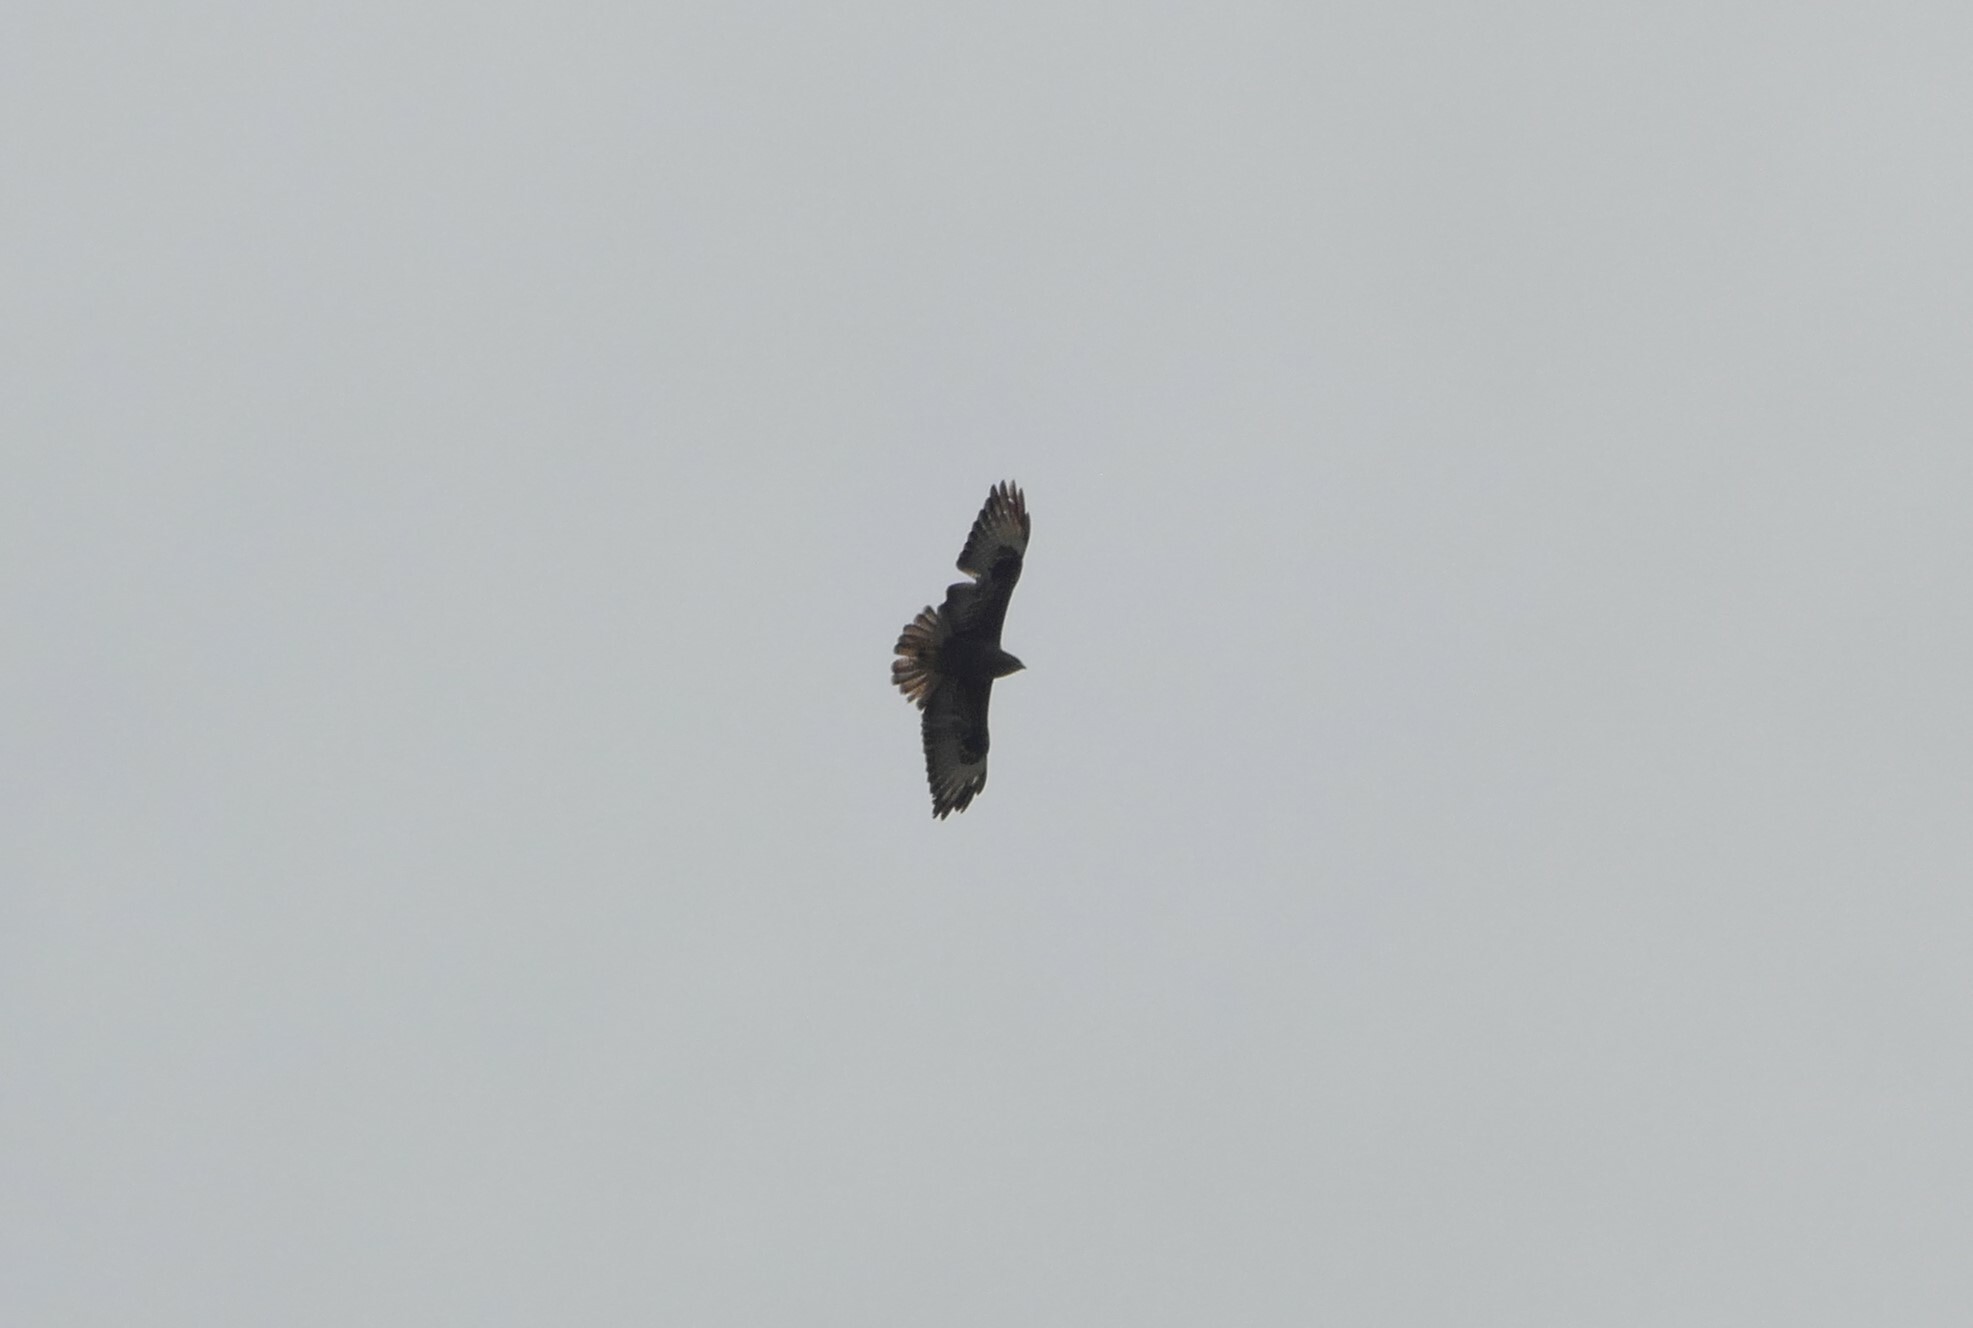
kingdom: Animalia
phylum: Chordata
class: Aves
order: Accipitriformes
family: Accipitridae
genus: Buteo
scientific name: Buteo buteo
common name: Common buzzard
